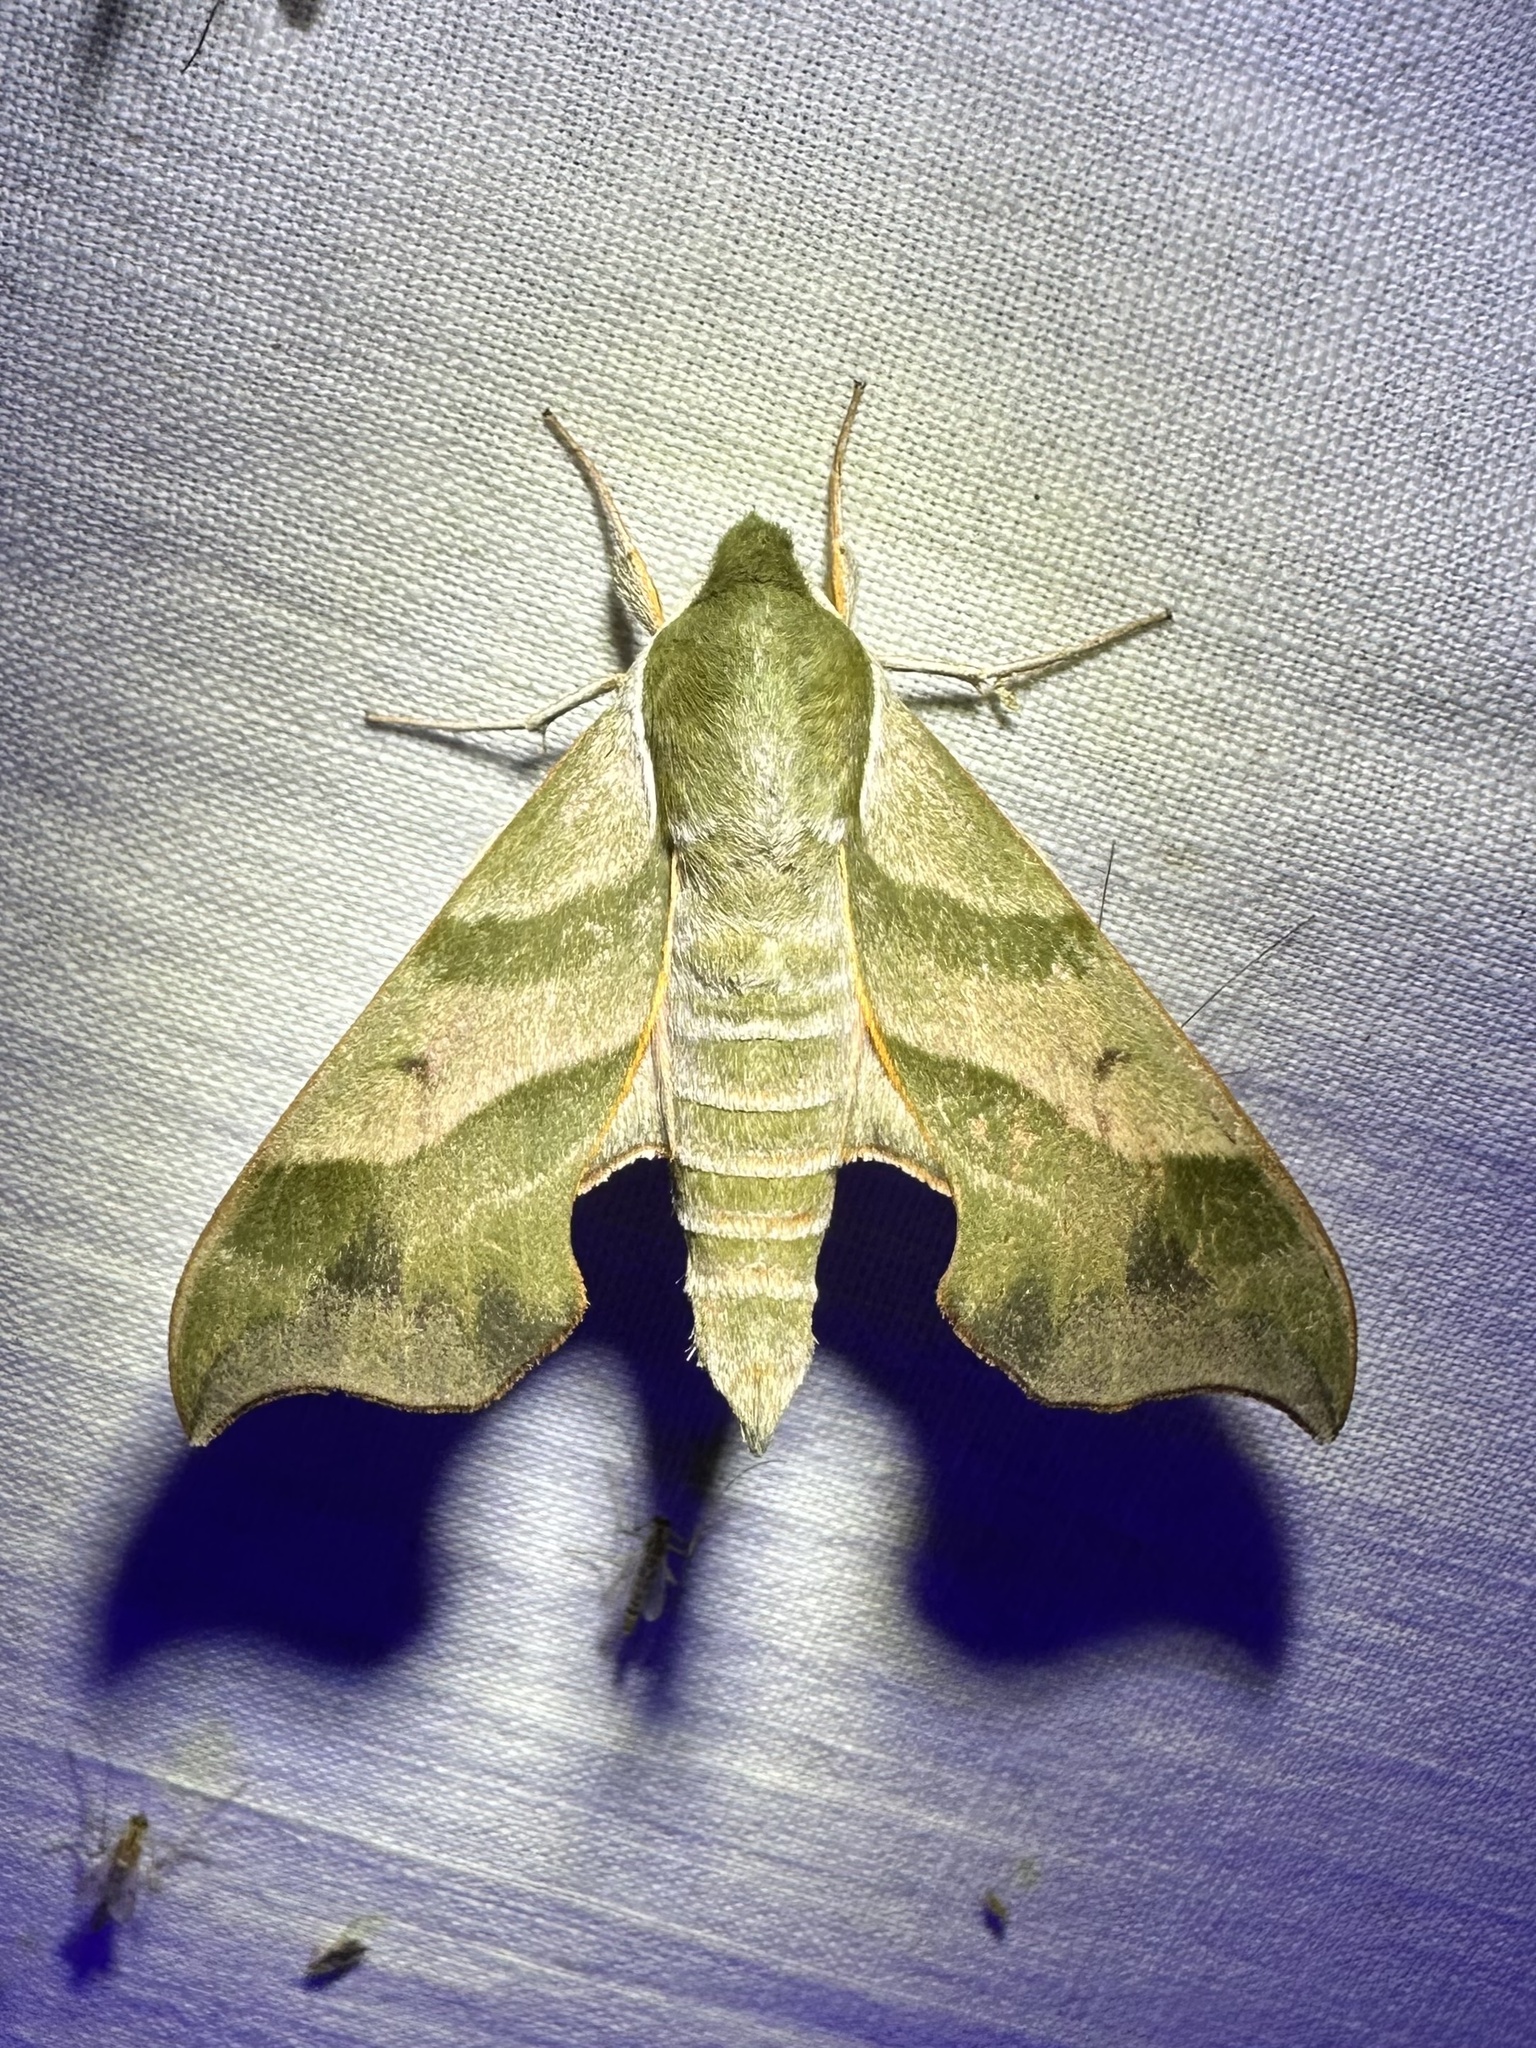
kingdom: Animalia
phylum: Arthropoda
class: Insecta
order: Lepidoptera
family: Sphingidae
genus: Darapsa
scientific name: Darapsa myron
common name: Hog sphinx
